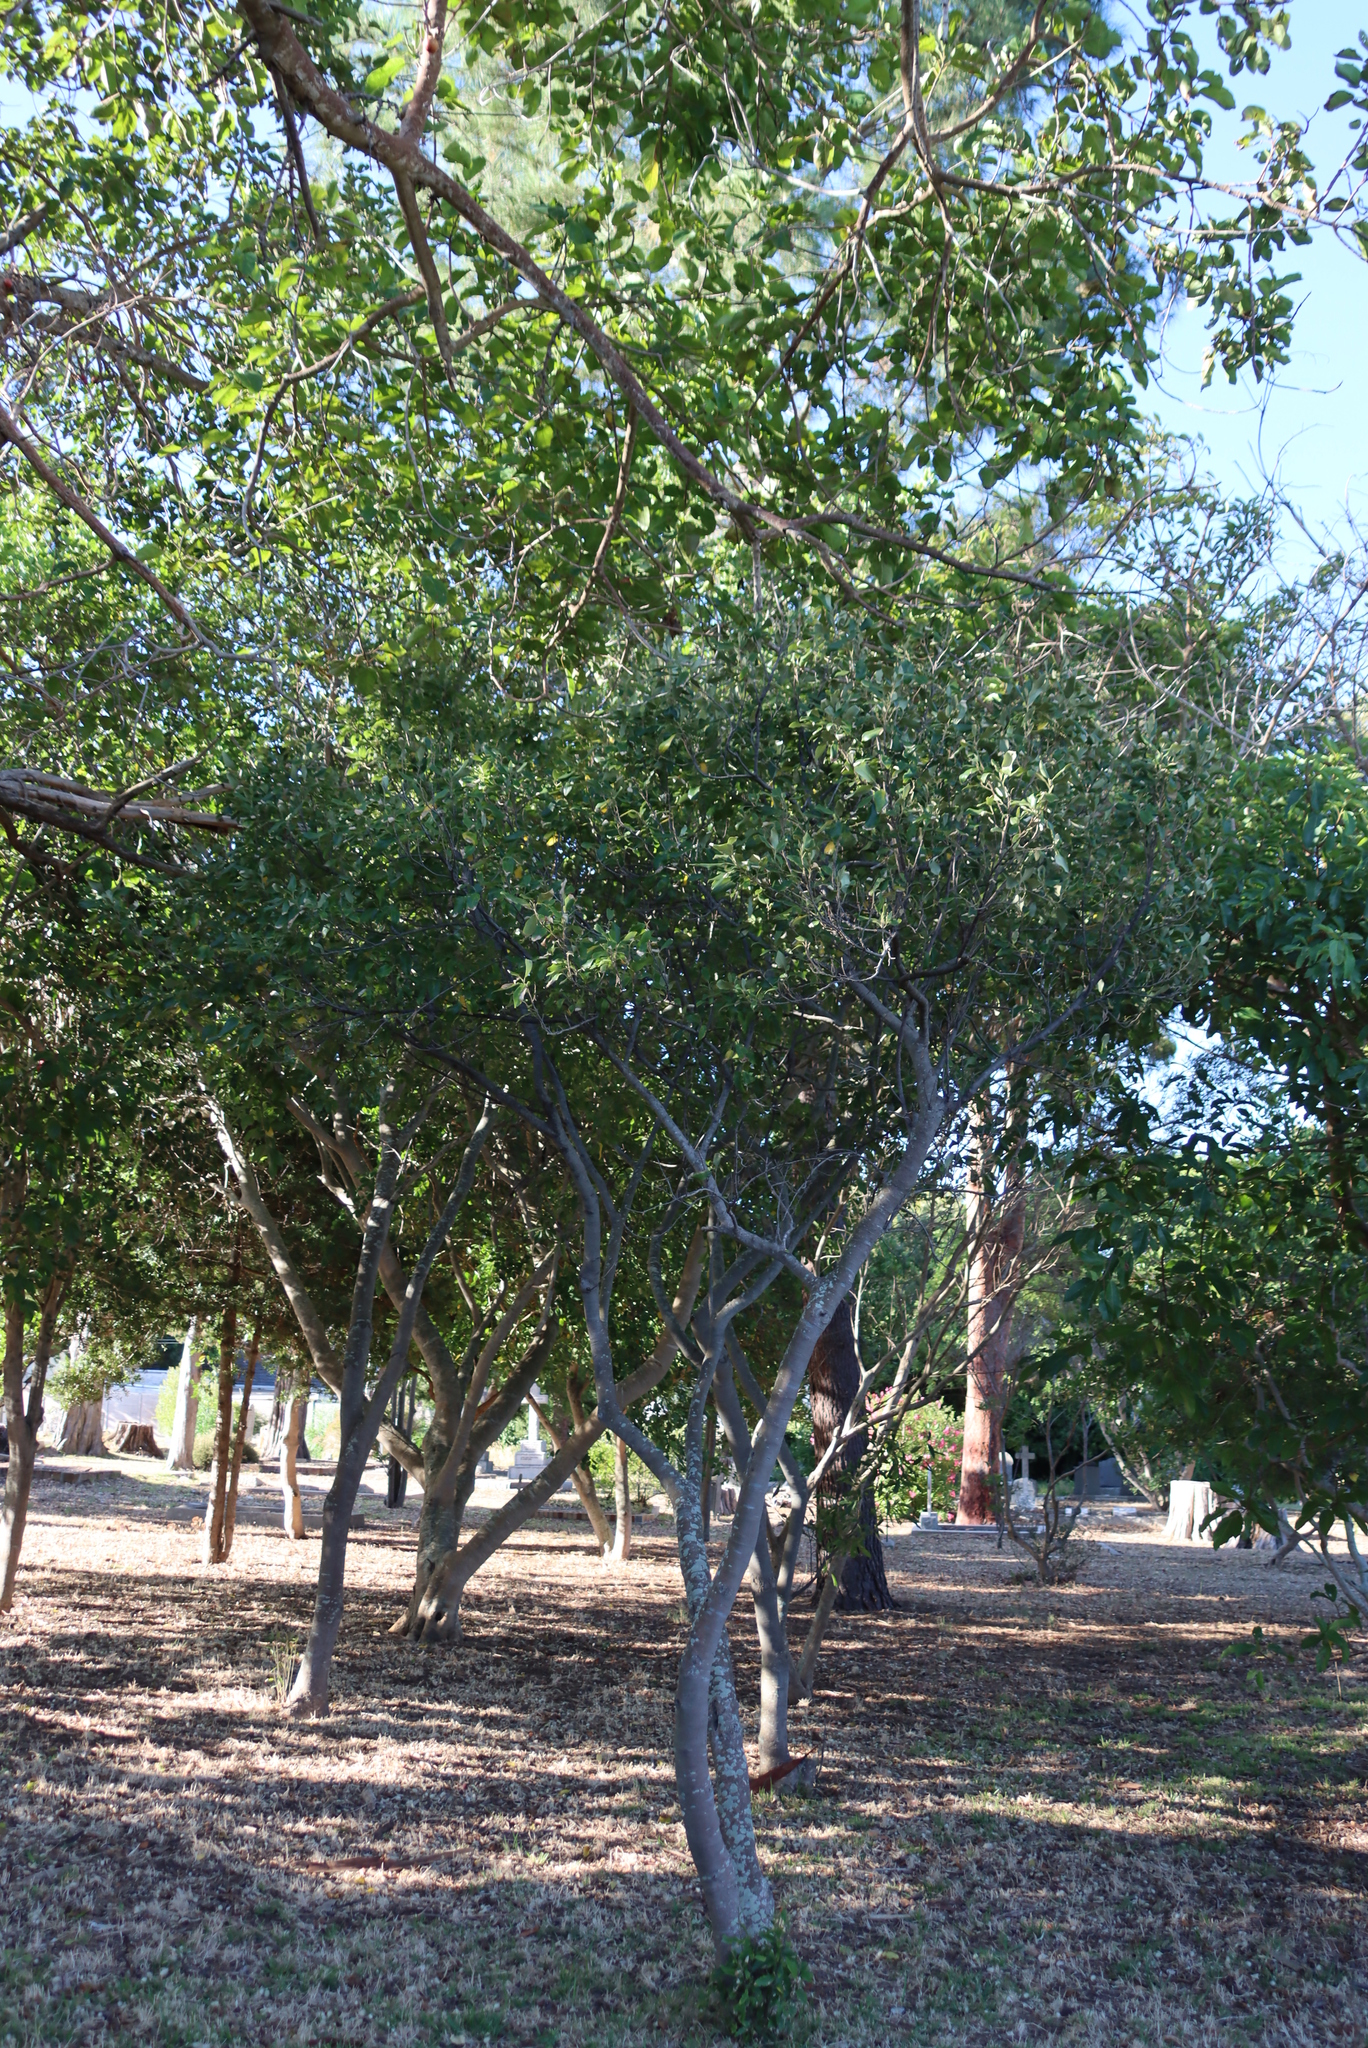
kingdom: Plantae
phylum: Tracheophyta
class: Magnoliopsida
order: Malpighiales
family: Achariaceae
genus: Kiggelaria
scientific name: Kiggelaria africana
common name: Wild peach
